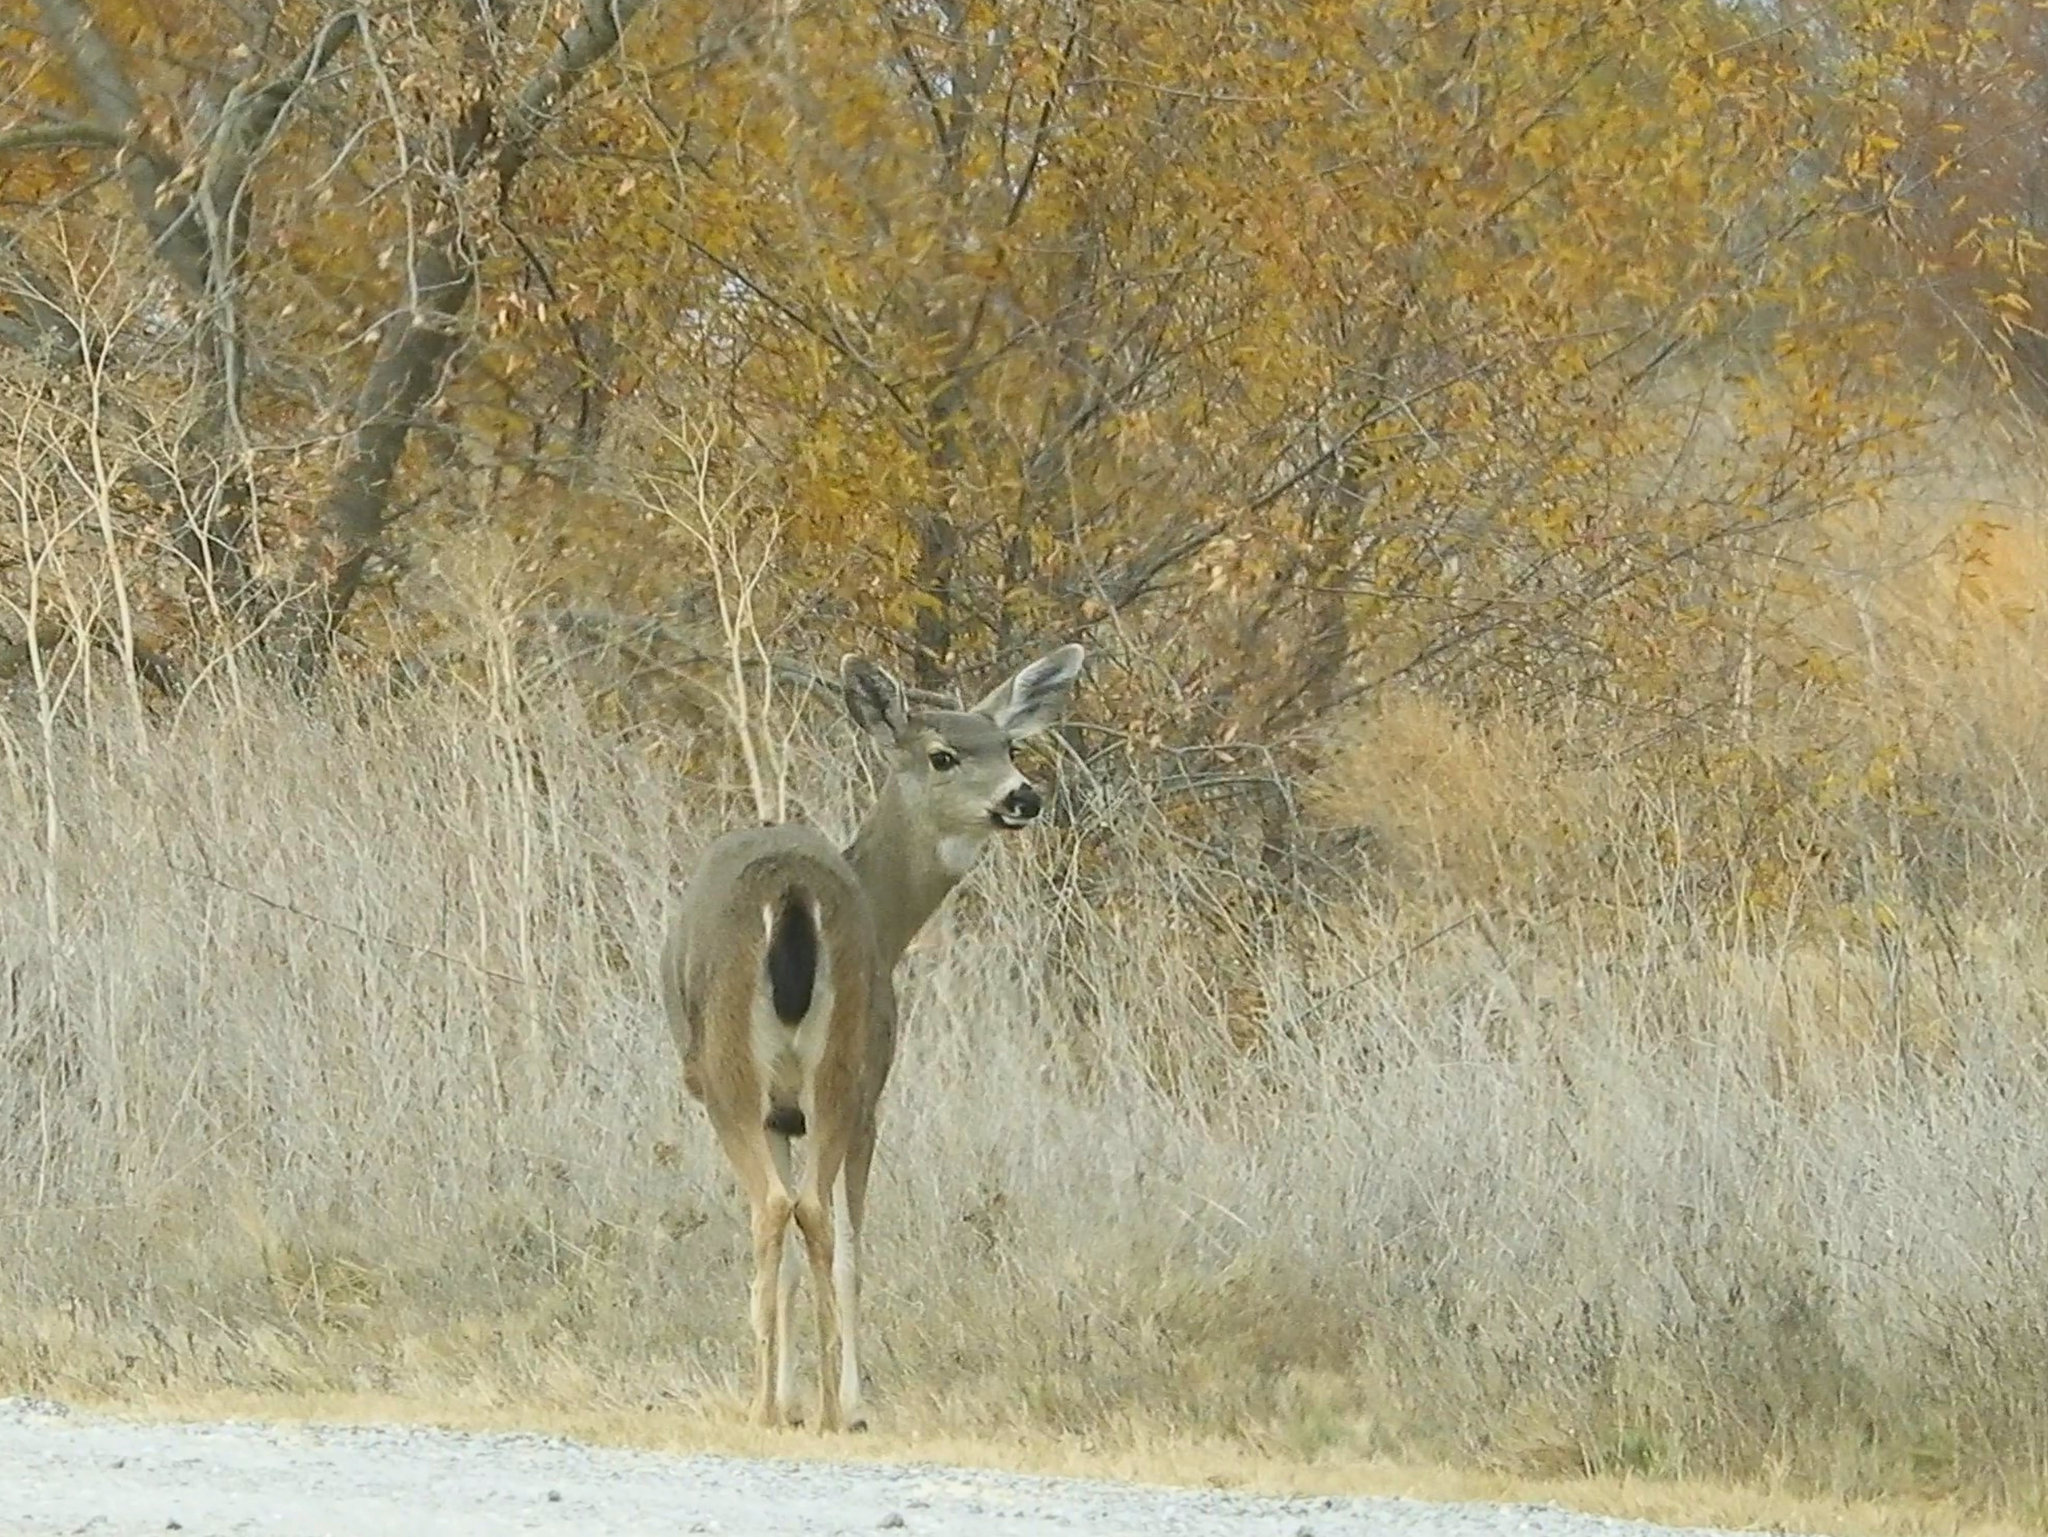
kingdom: Animalia
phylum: Chordata
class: Mammalia
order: Artiodactyla
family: Cervidae
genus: Odocoileus
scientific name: Odocoileus hemionus
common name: Mule deer
